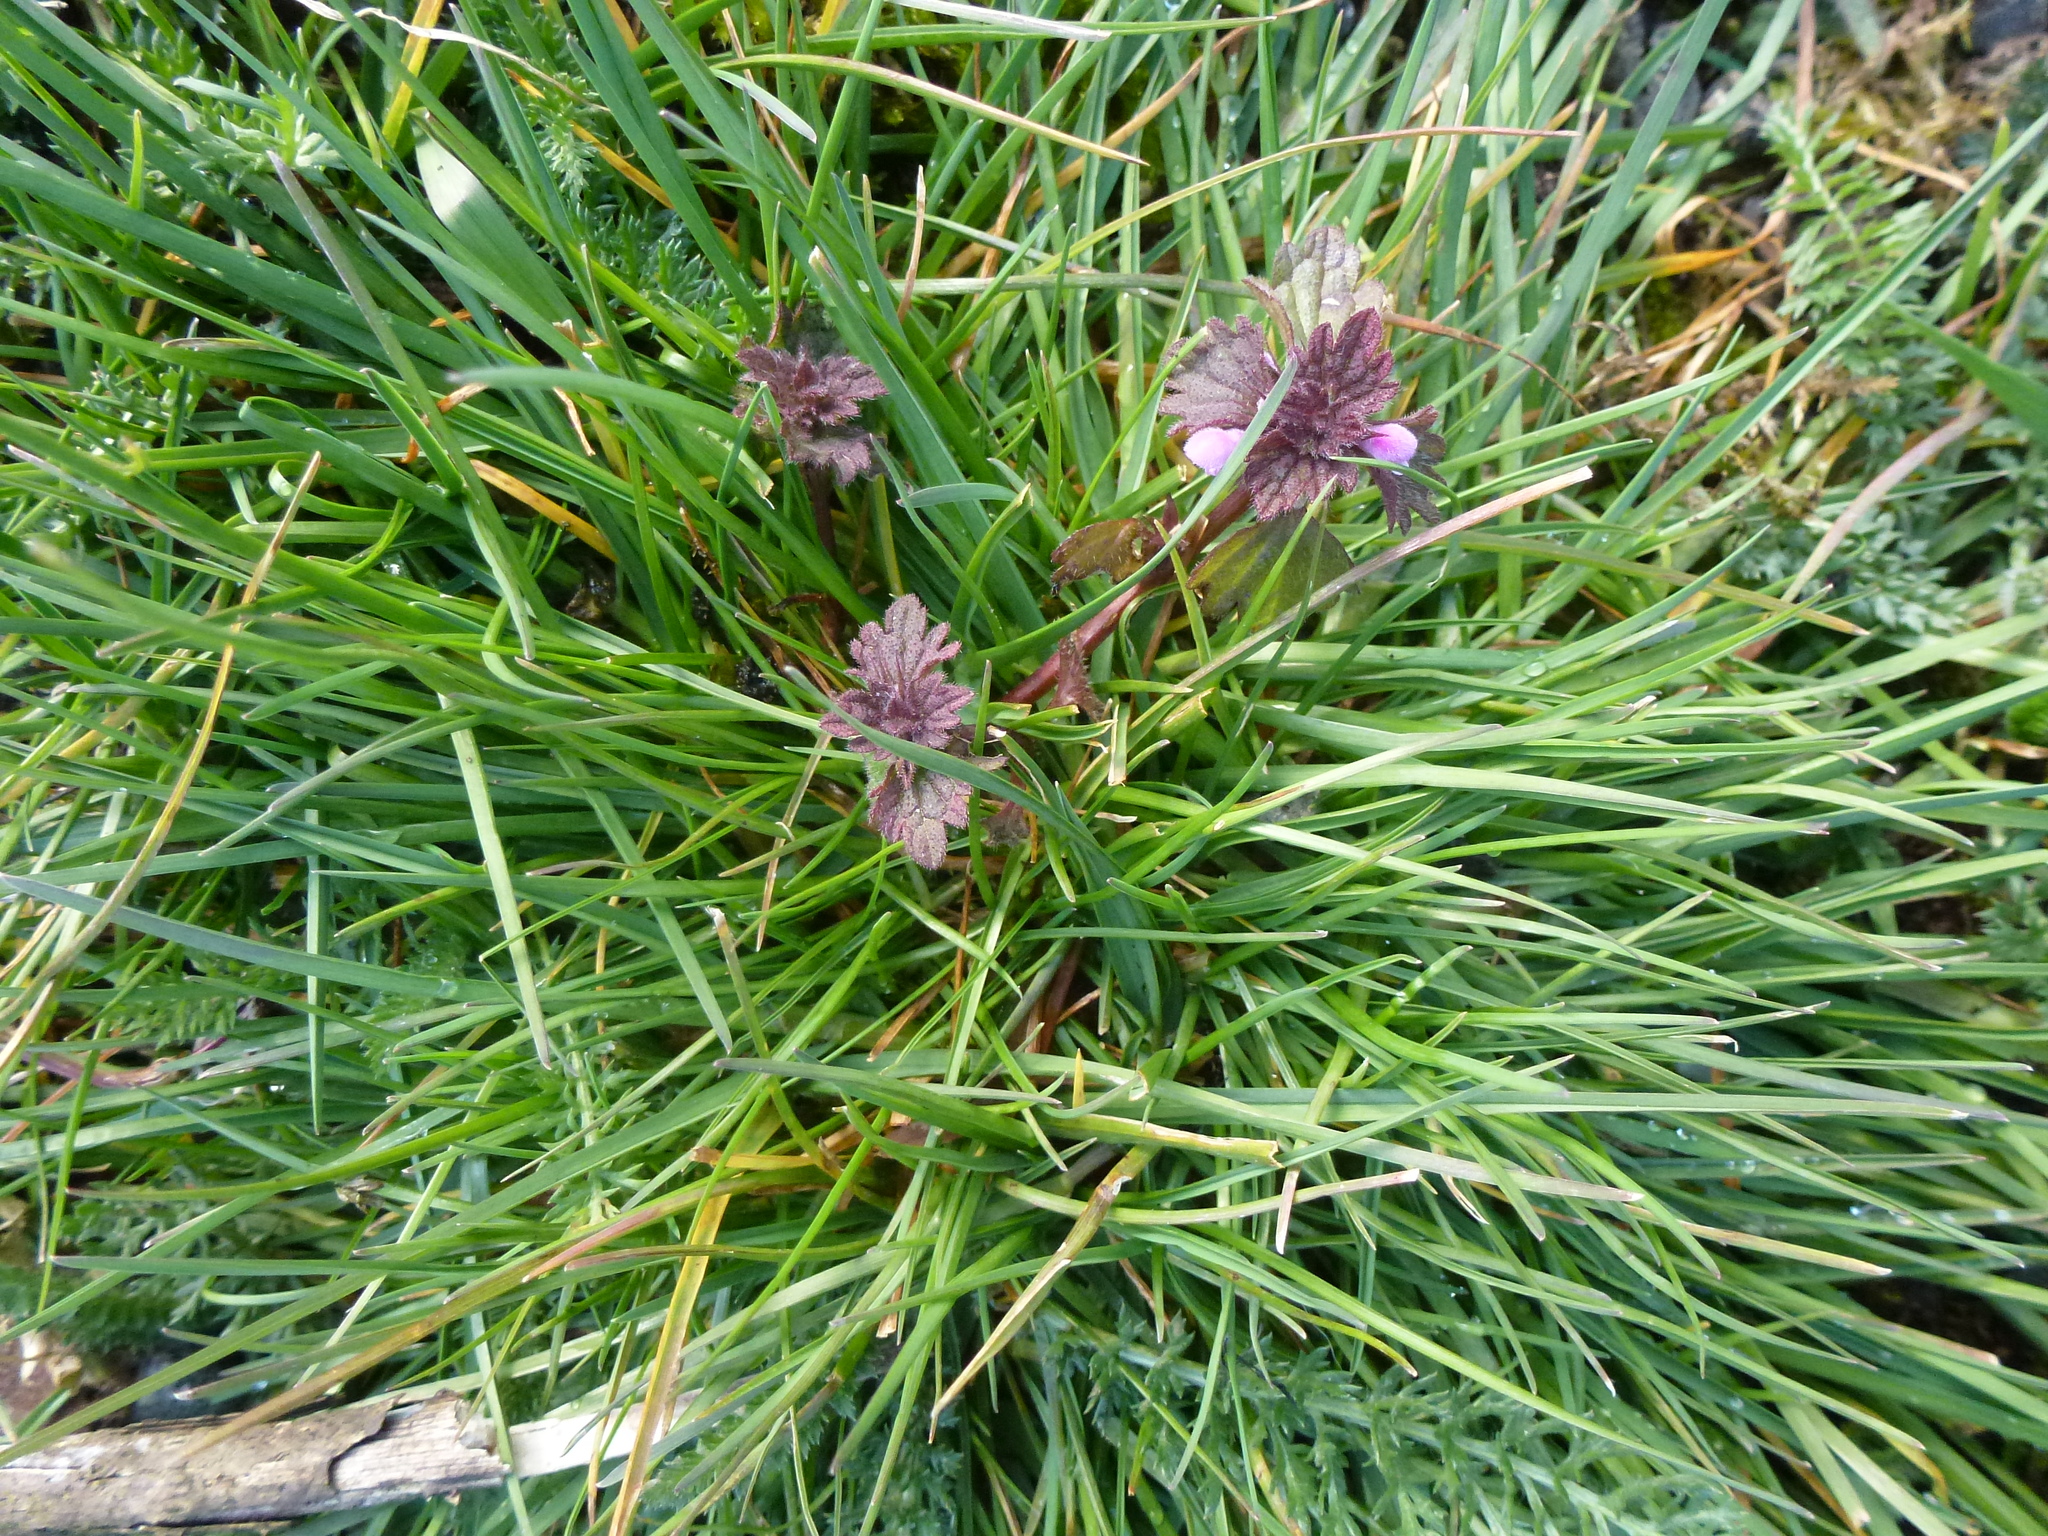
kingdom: Plantae
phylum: Tracheophyta
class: Magnoliopsida
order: Lamiales
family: Lamiaceae
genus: Lamium
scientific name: Lamium purpureum
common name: Red dead-nettle
